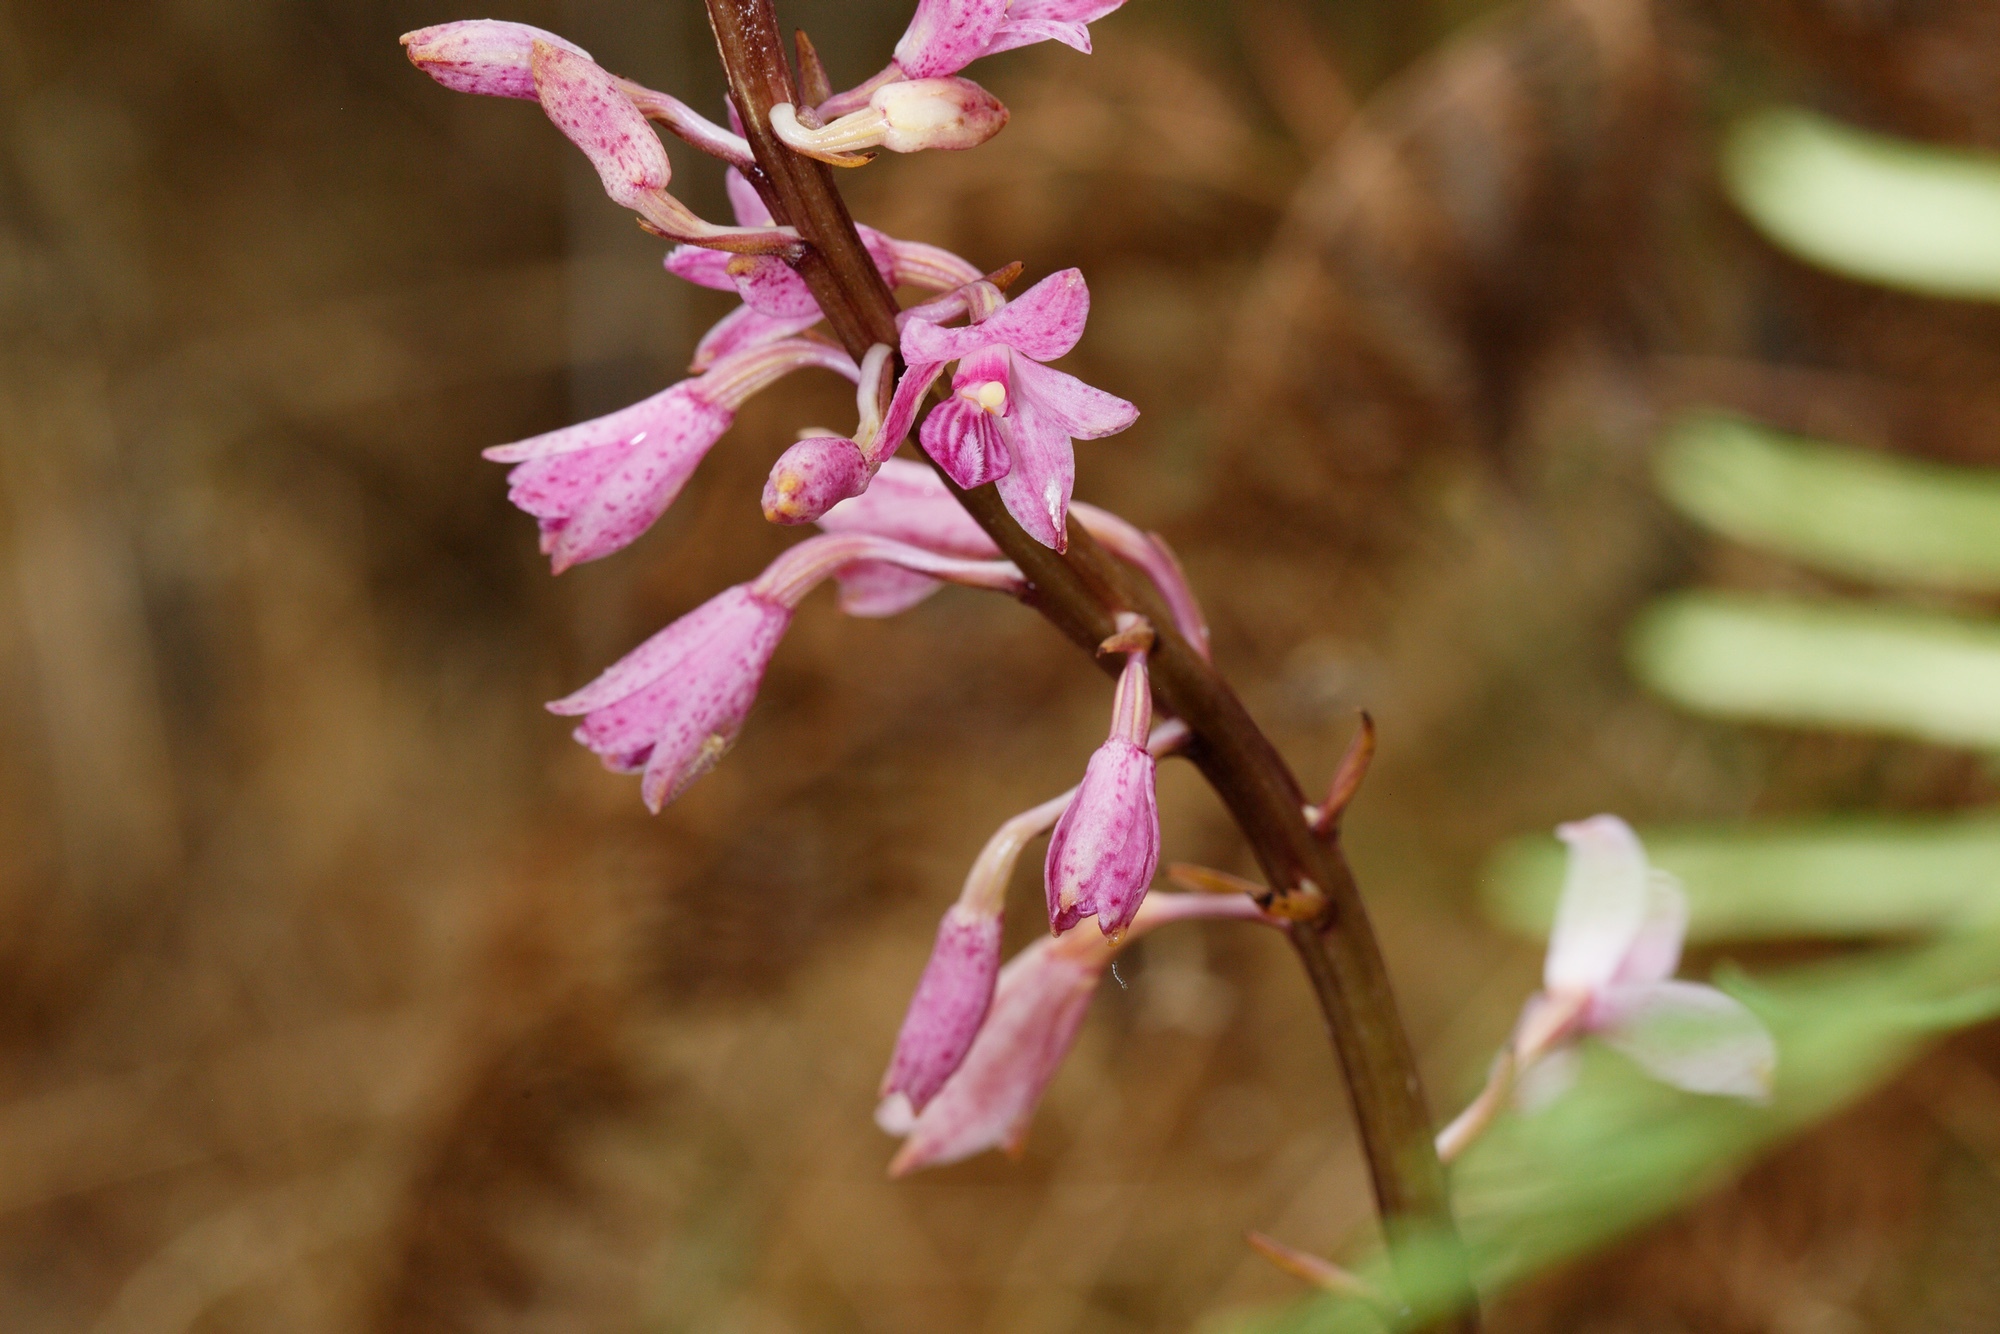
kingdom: Plantae
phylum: Tracheophyta
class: Liliopsida
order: Asparagales
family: Orchidaceae
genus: Dipodium
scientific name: Dipodium roseum
